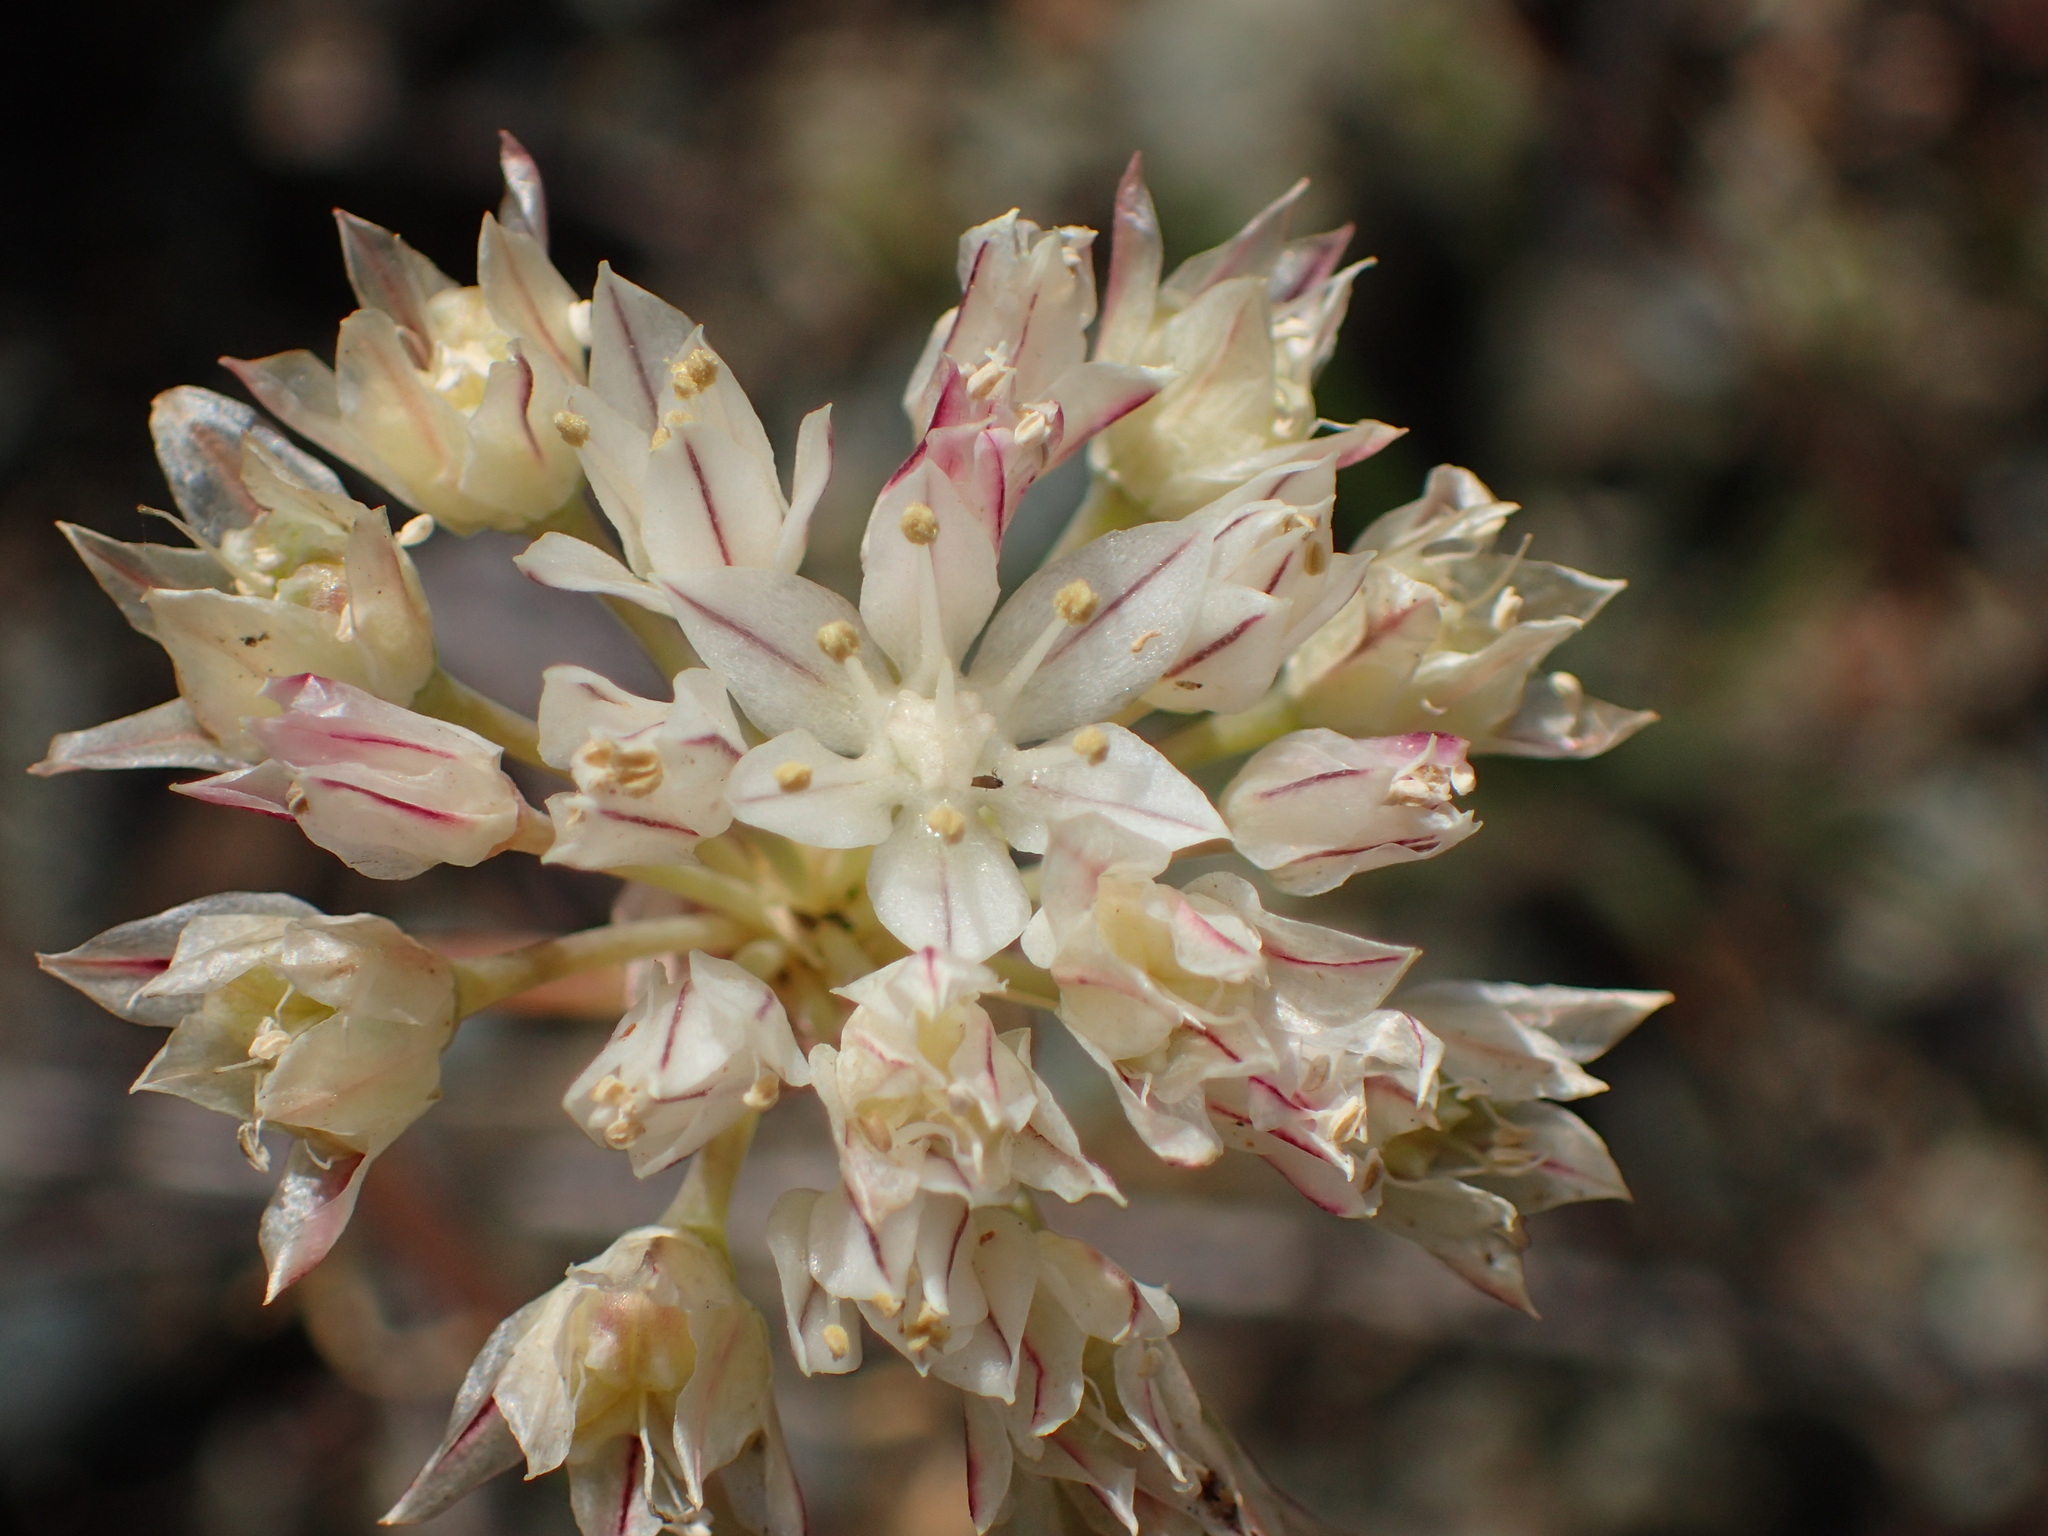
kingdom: Plantae
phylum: Tracheophyta
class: Liliopsida
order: Asparagales
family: Amaryllidaceae
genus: Allium
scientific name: Allium haematochiton
